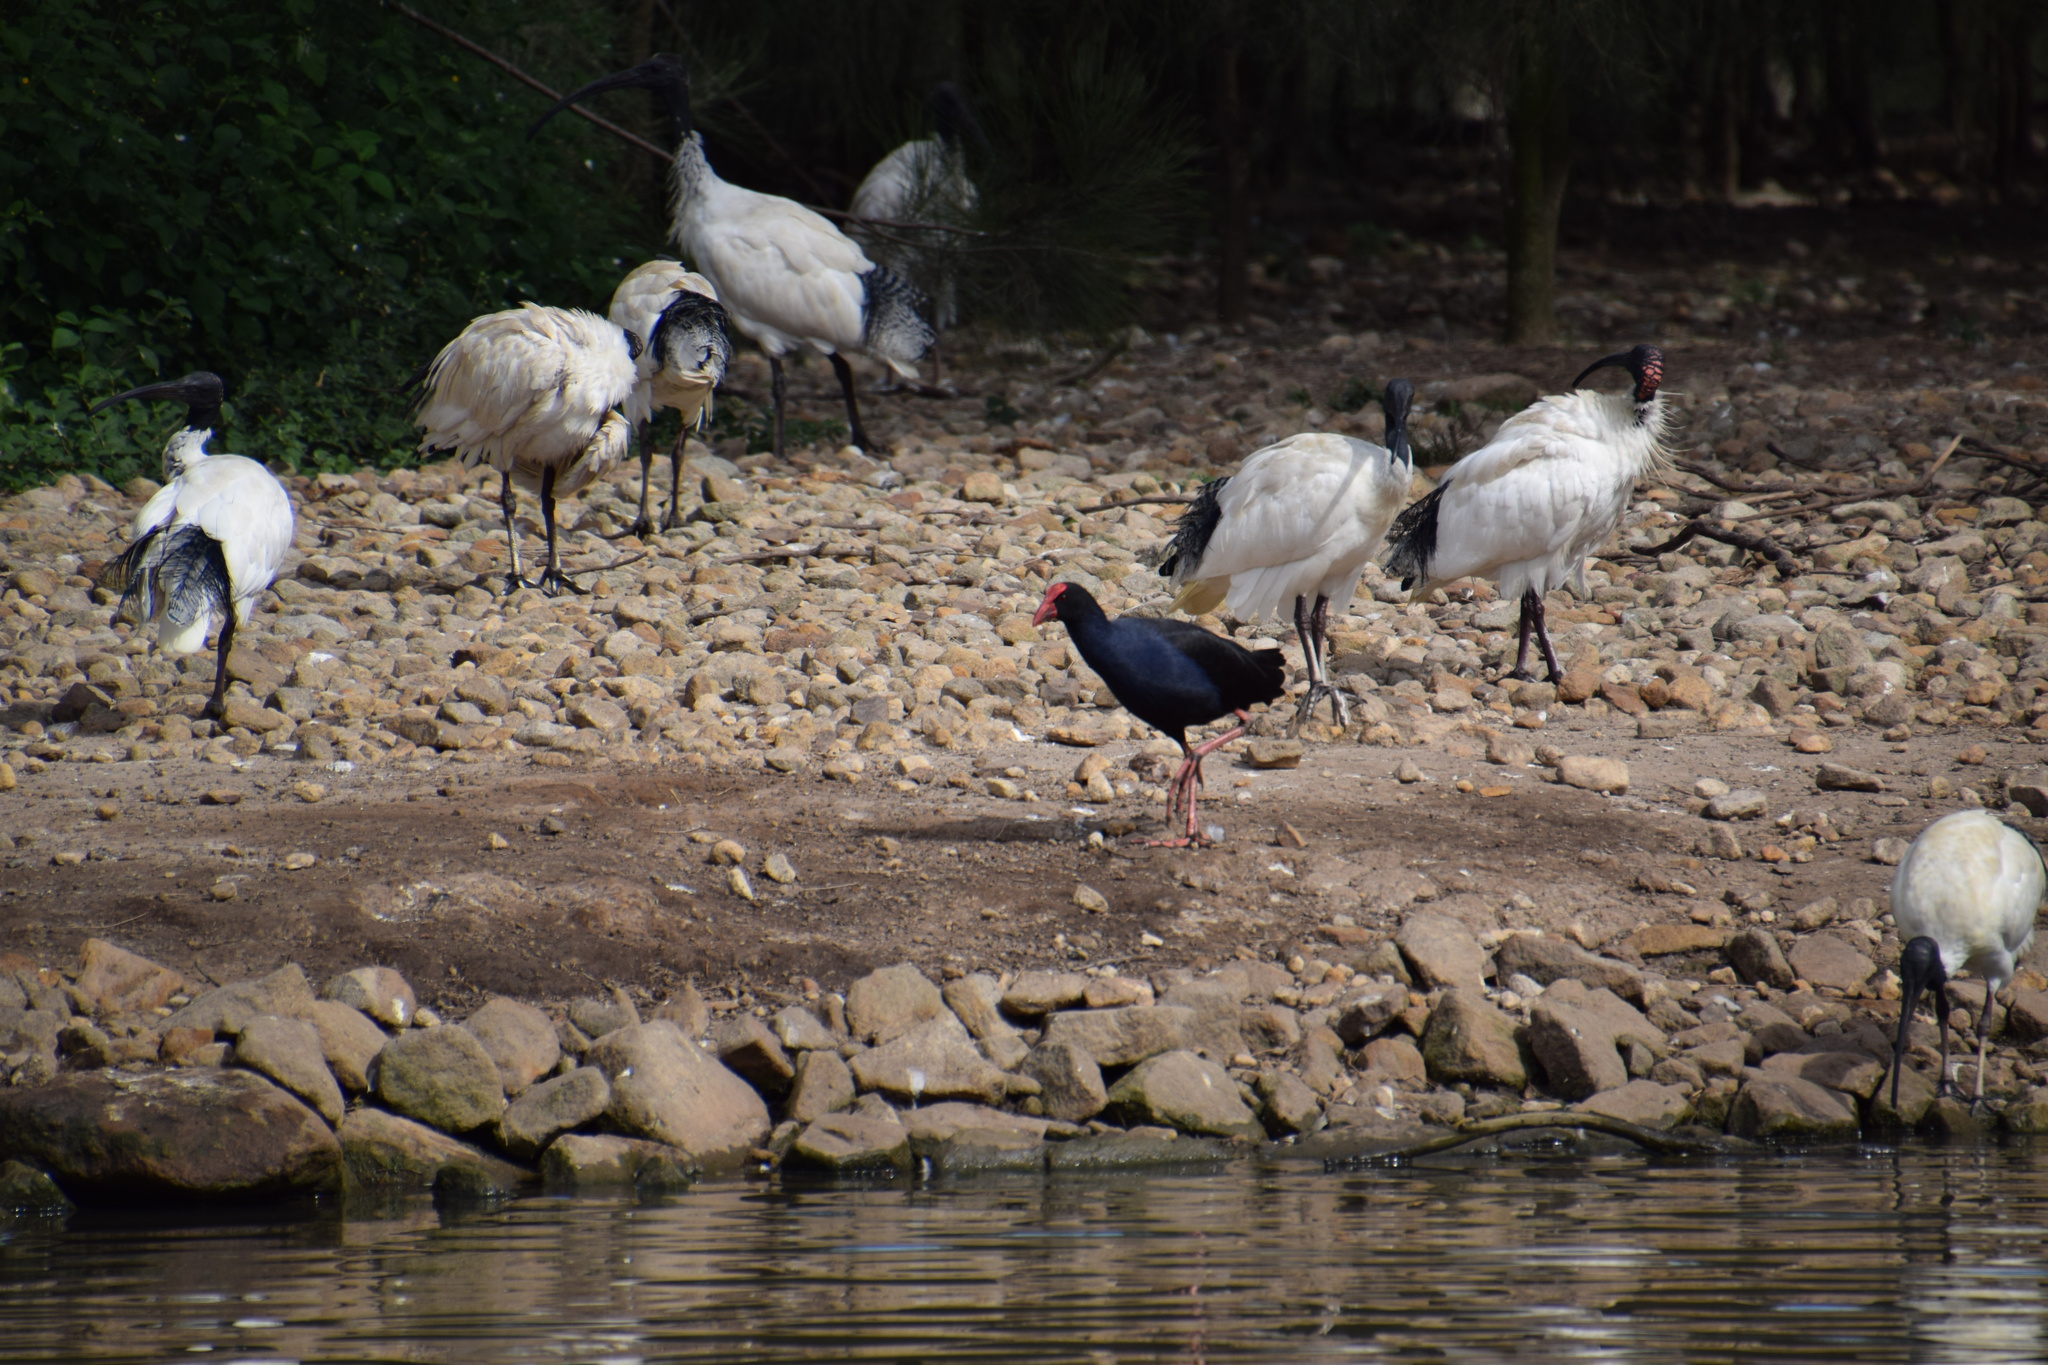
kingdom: Animalia
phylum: Chordata
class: Aves
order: Gruiformes
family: Rallidae
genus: Porphyrio
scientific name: Porphyrio melanotus
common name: Australasian swamphen
